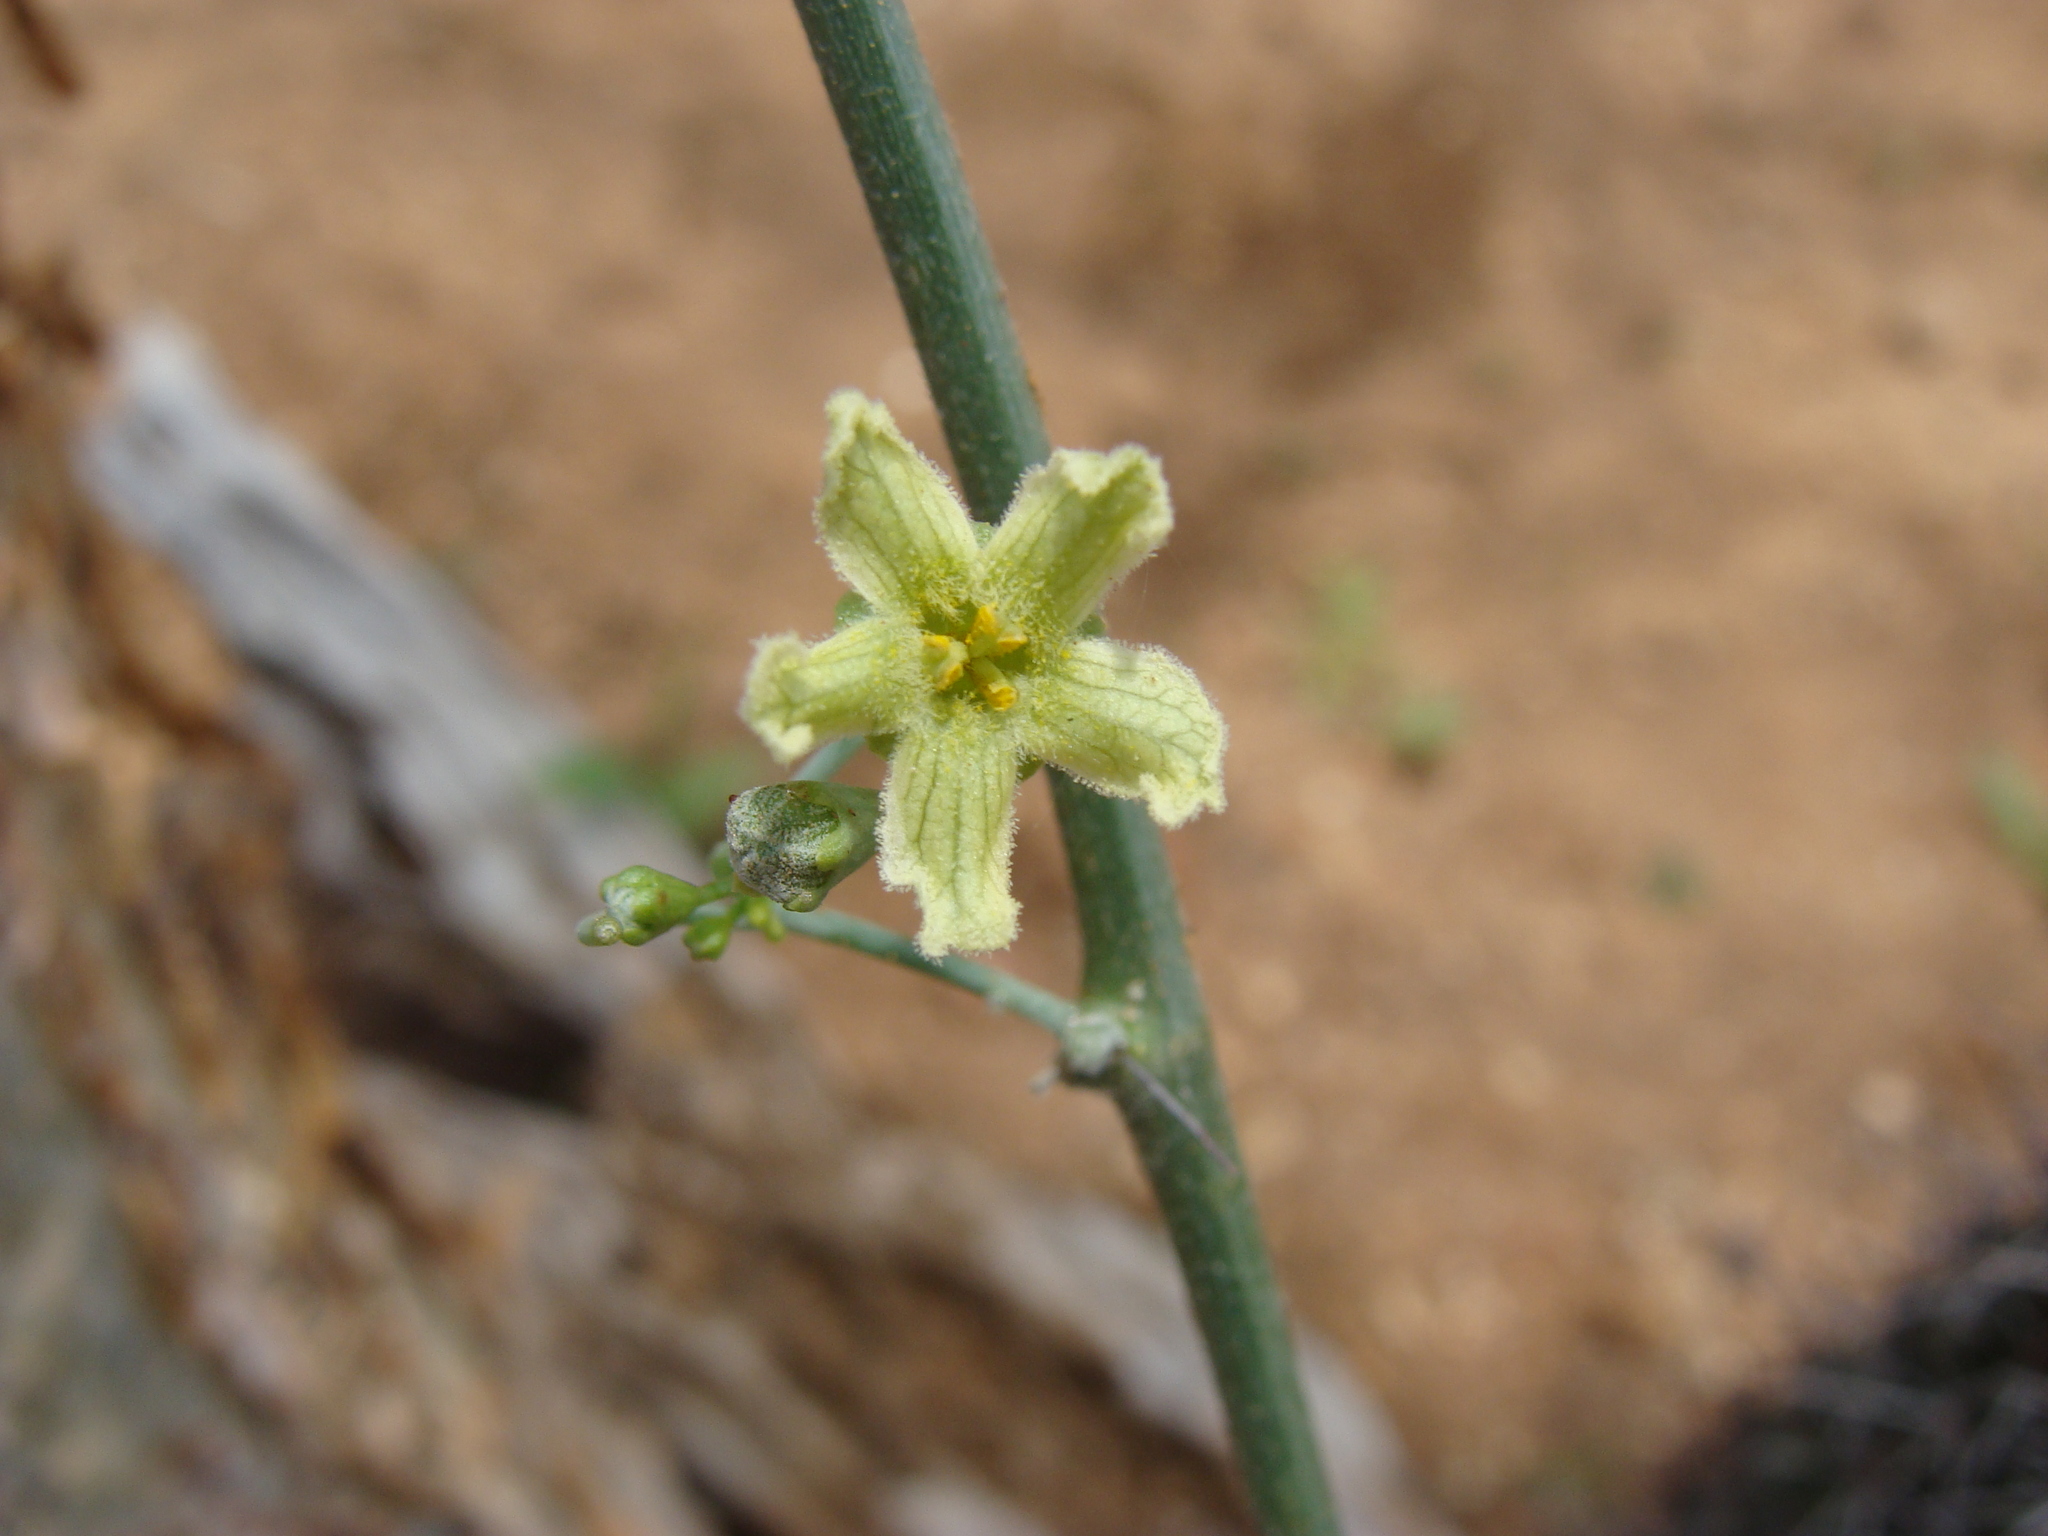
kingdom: Plantae
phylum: Tracheophyta
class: Magnoliopsida
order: Cucurbitales
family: Cucurbitaceae
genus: Ibervillea
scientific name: Ibervillea sonorae
